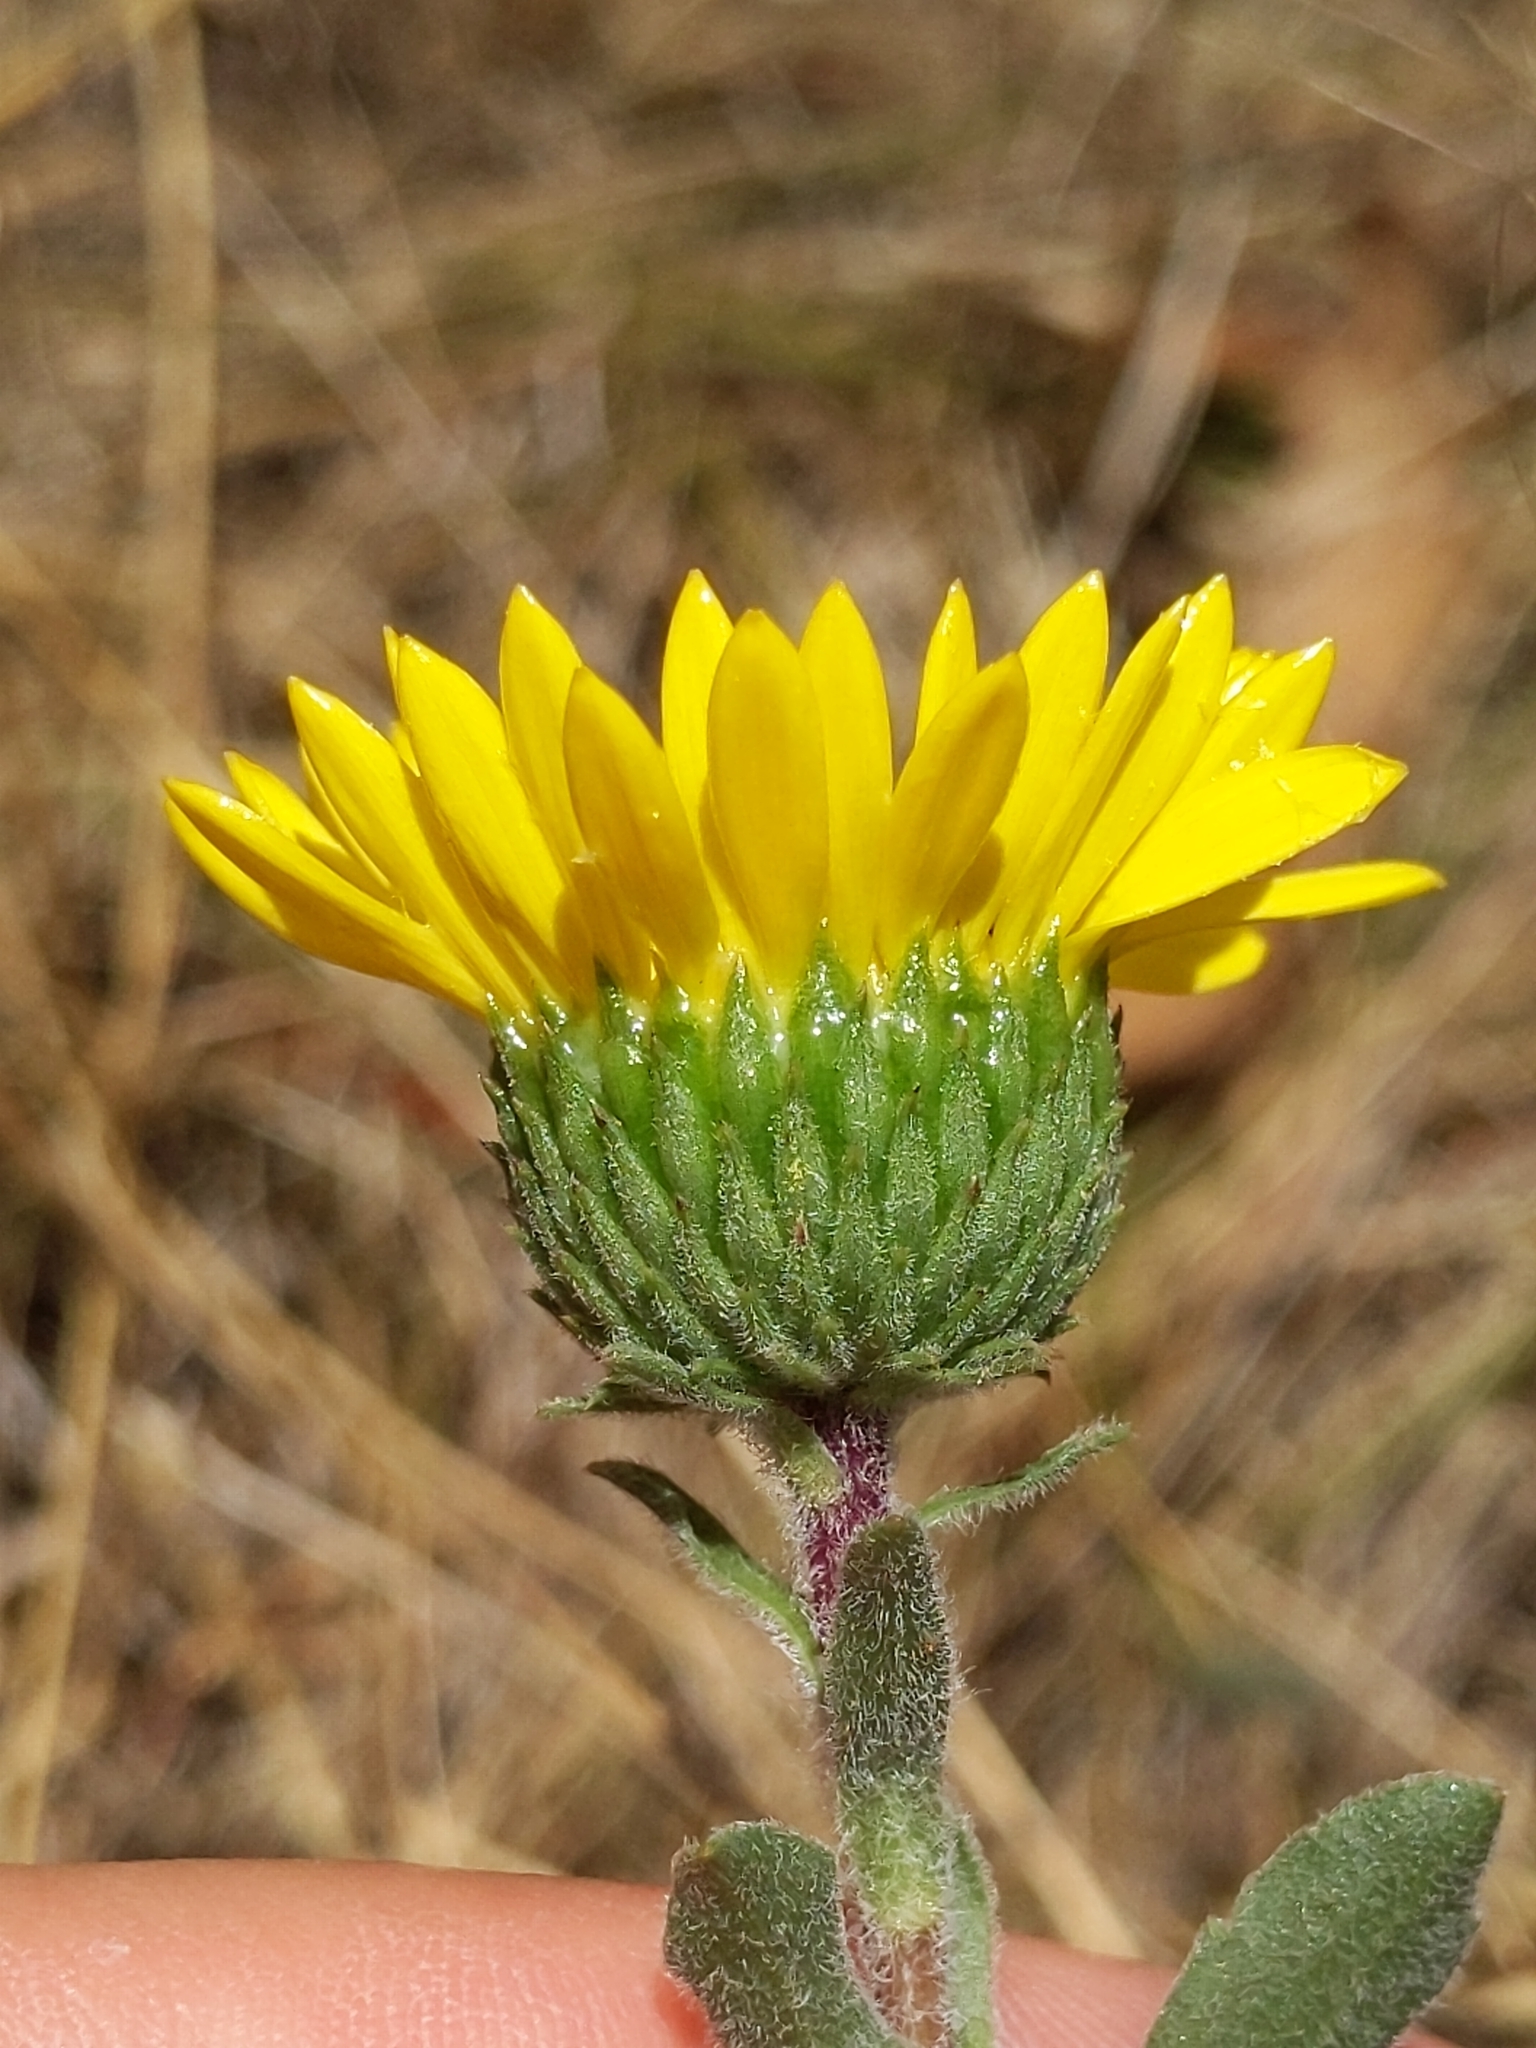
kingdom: Plantae
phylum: Tracheophyta
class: Magnoliopsida
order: Asterales
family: Asteraceae
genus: Grindelia
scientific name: Grindelia hirsutula
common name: Hairy gumweed
